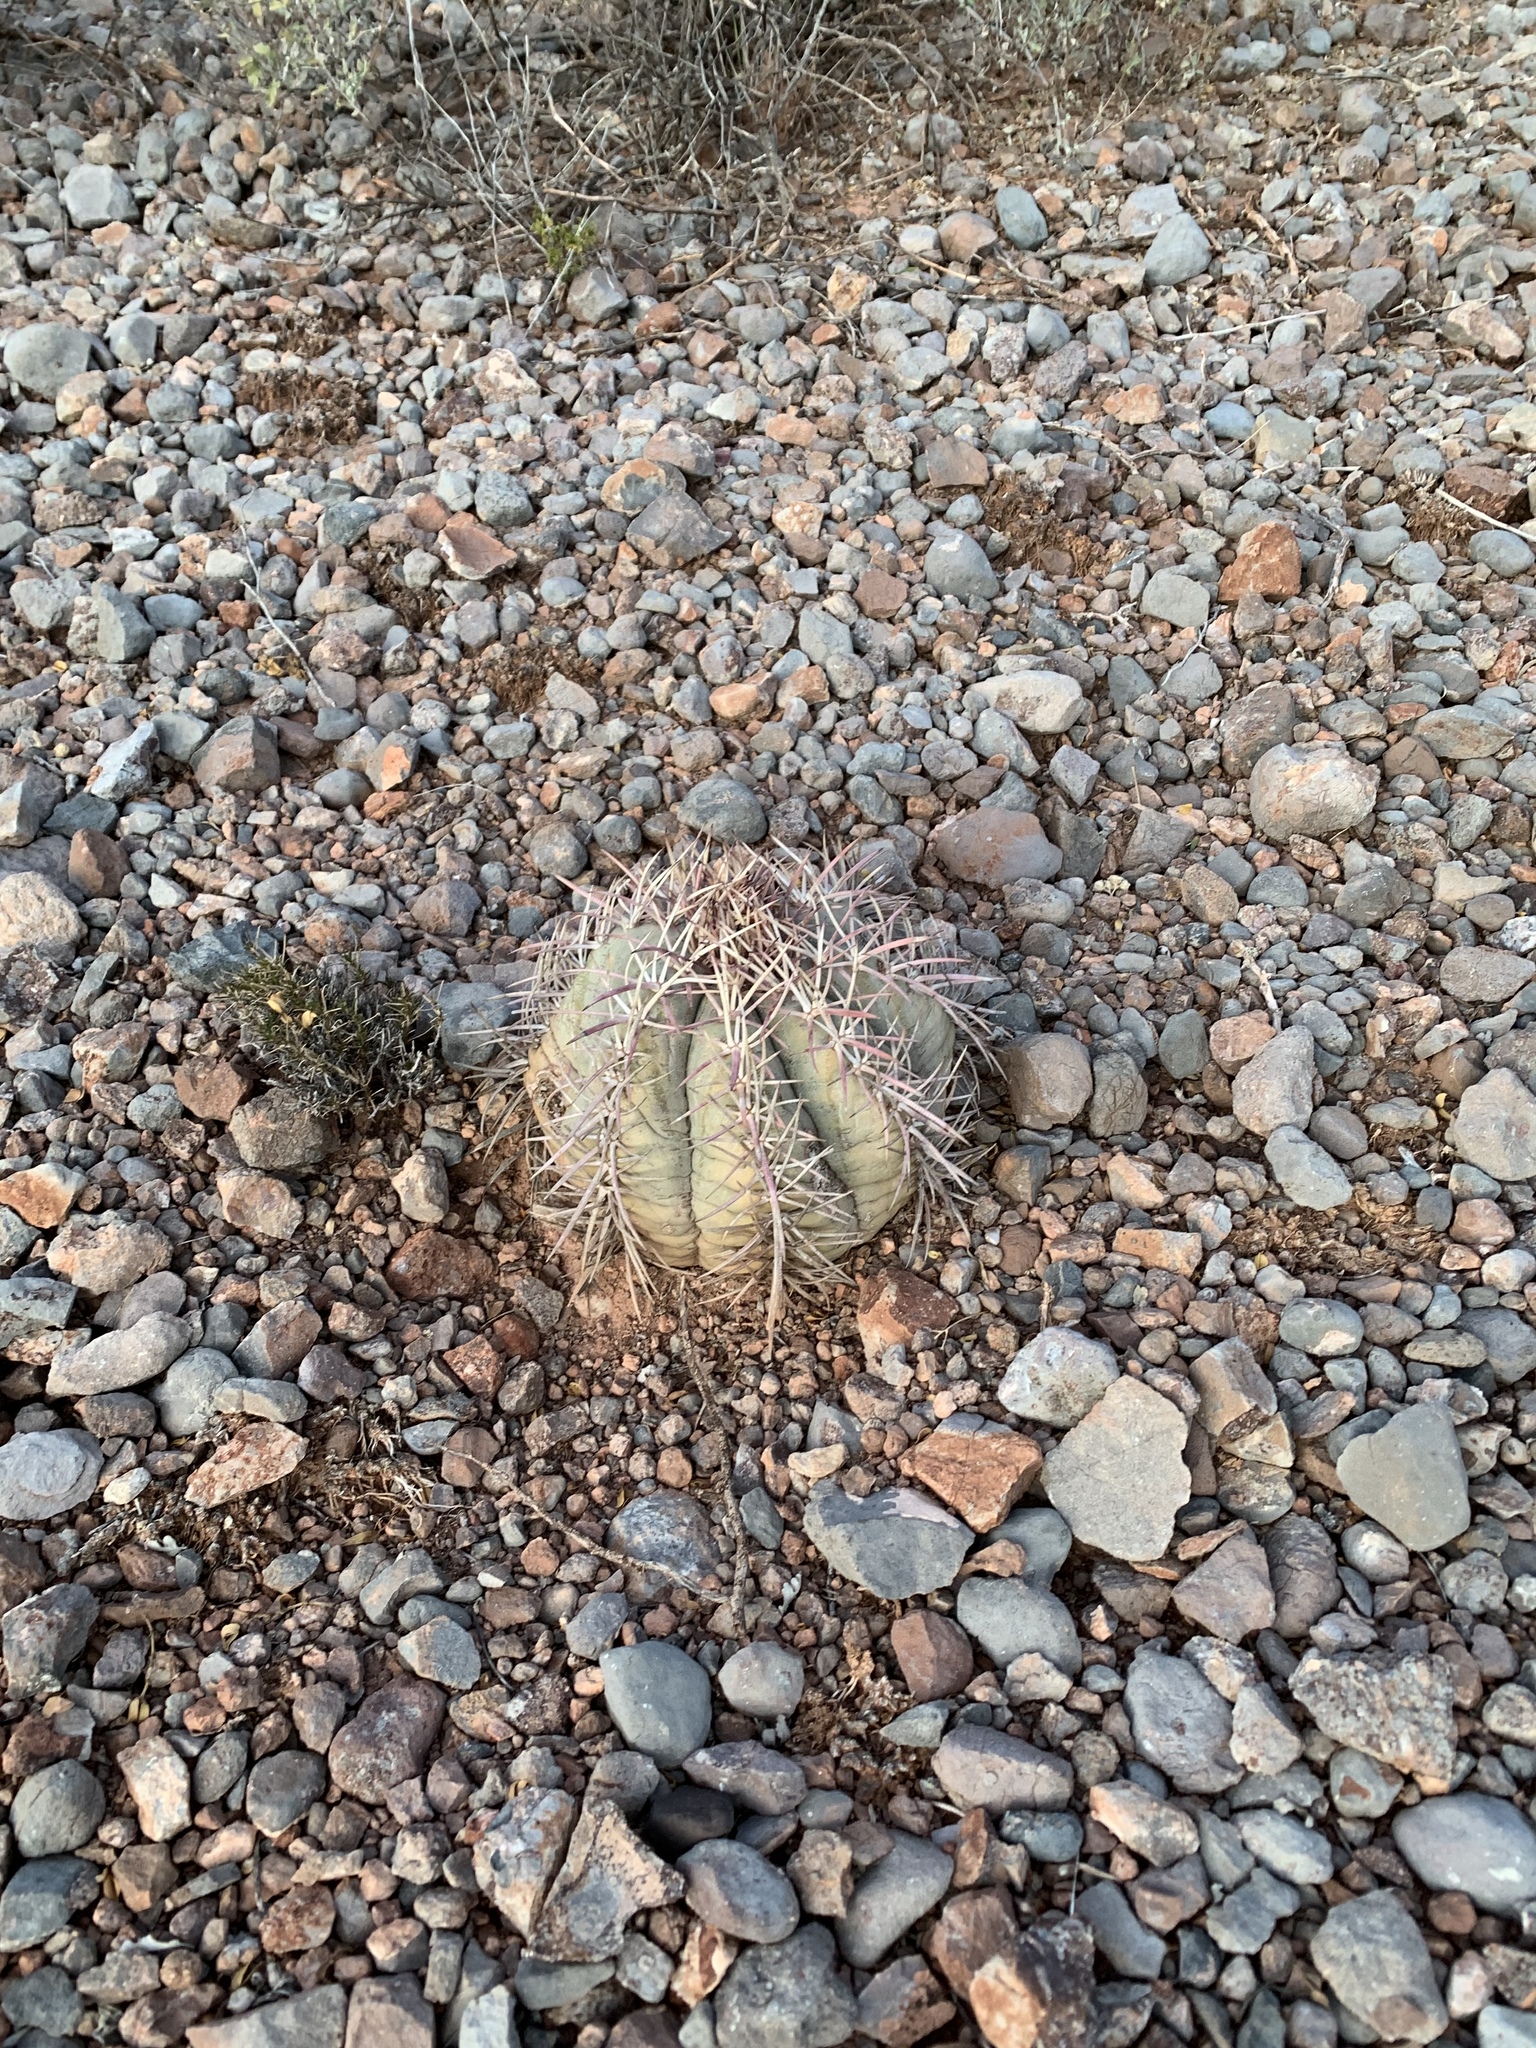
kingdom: Plantae
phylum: Tracheophyta
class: Magnoliopsida
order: Caryophyllales
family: Cactaceae
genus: Echinocactus
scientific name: Echinocactus horizonthalonius
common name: Devilshead
